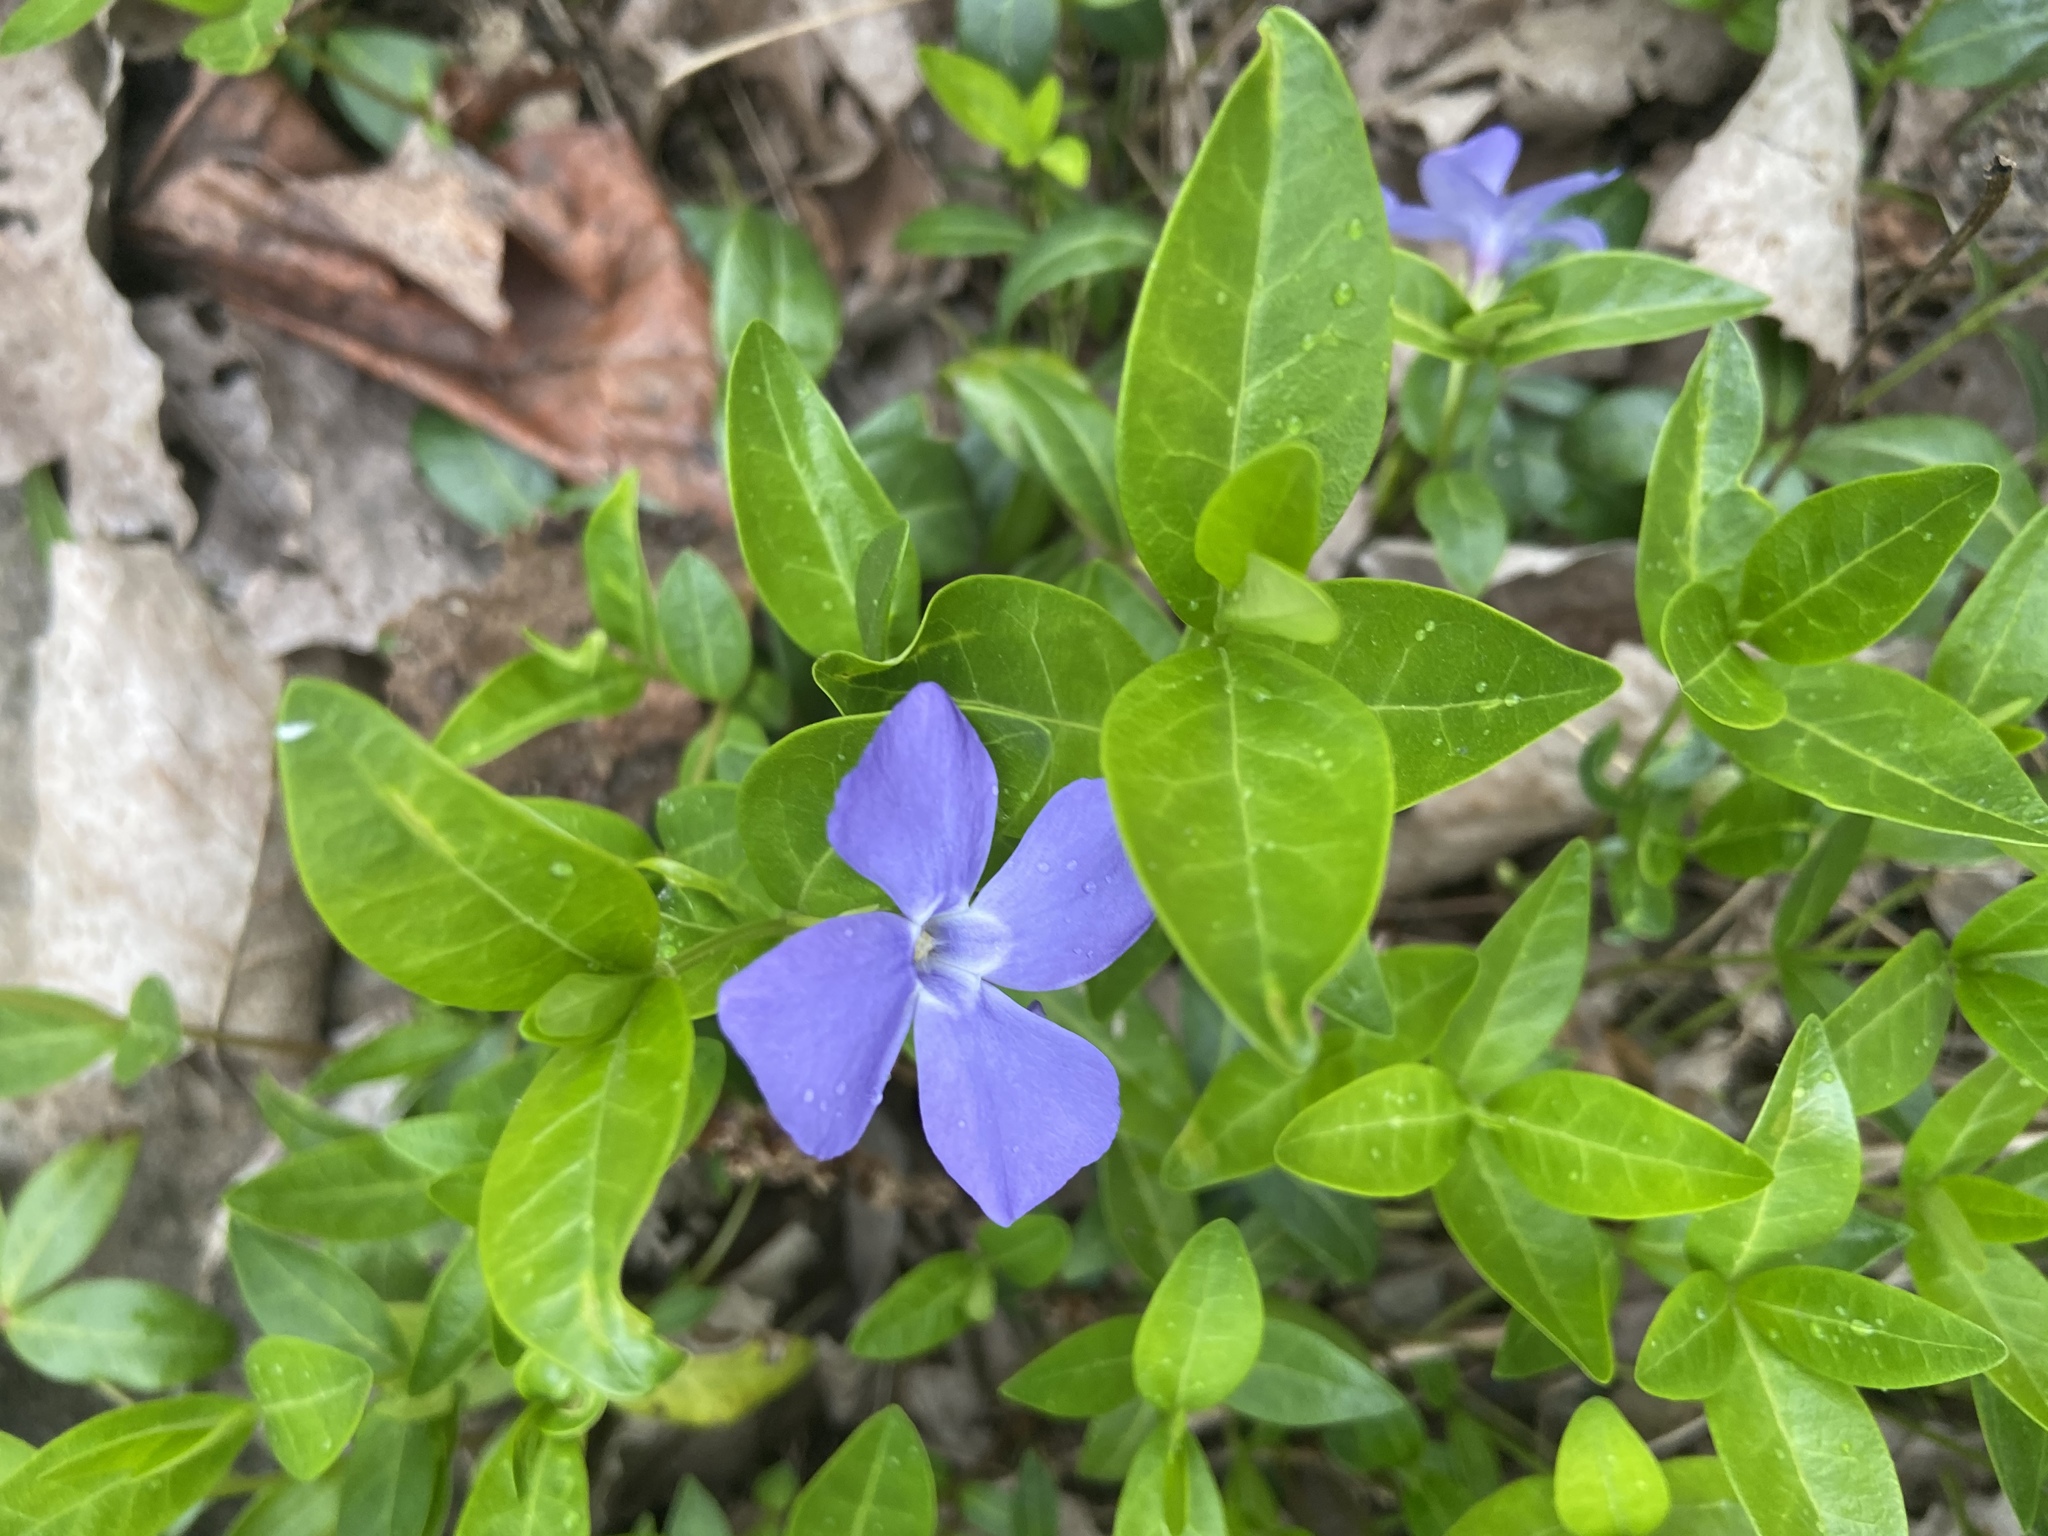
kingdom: Plantae
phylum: Tracheophyta
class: Magnoliopsida
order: Gentianales
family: Apocynaceae
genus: Vinca
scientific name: Vinca minor
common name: Lesser periwinkle
